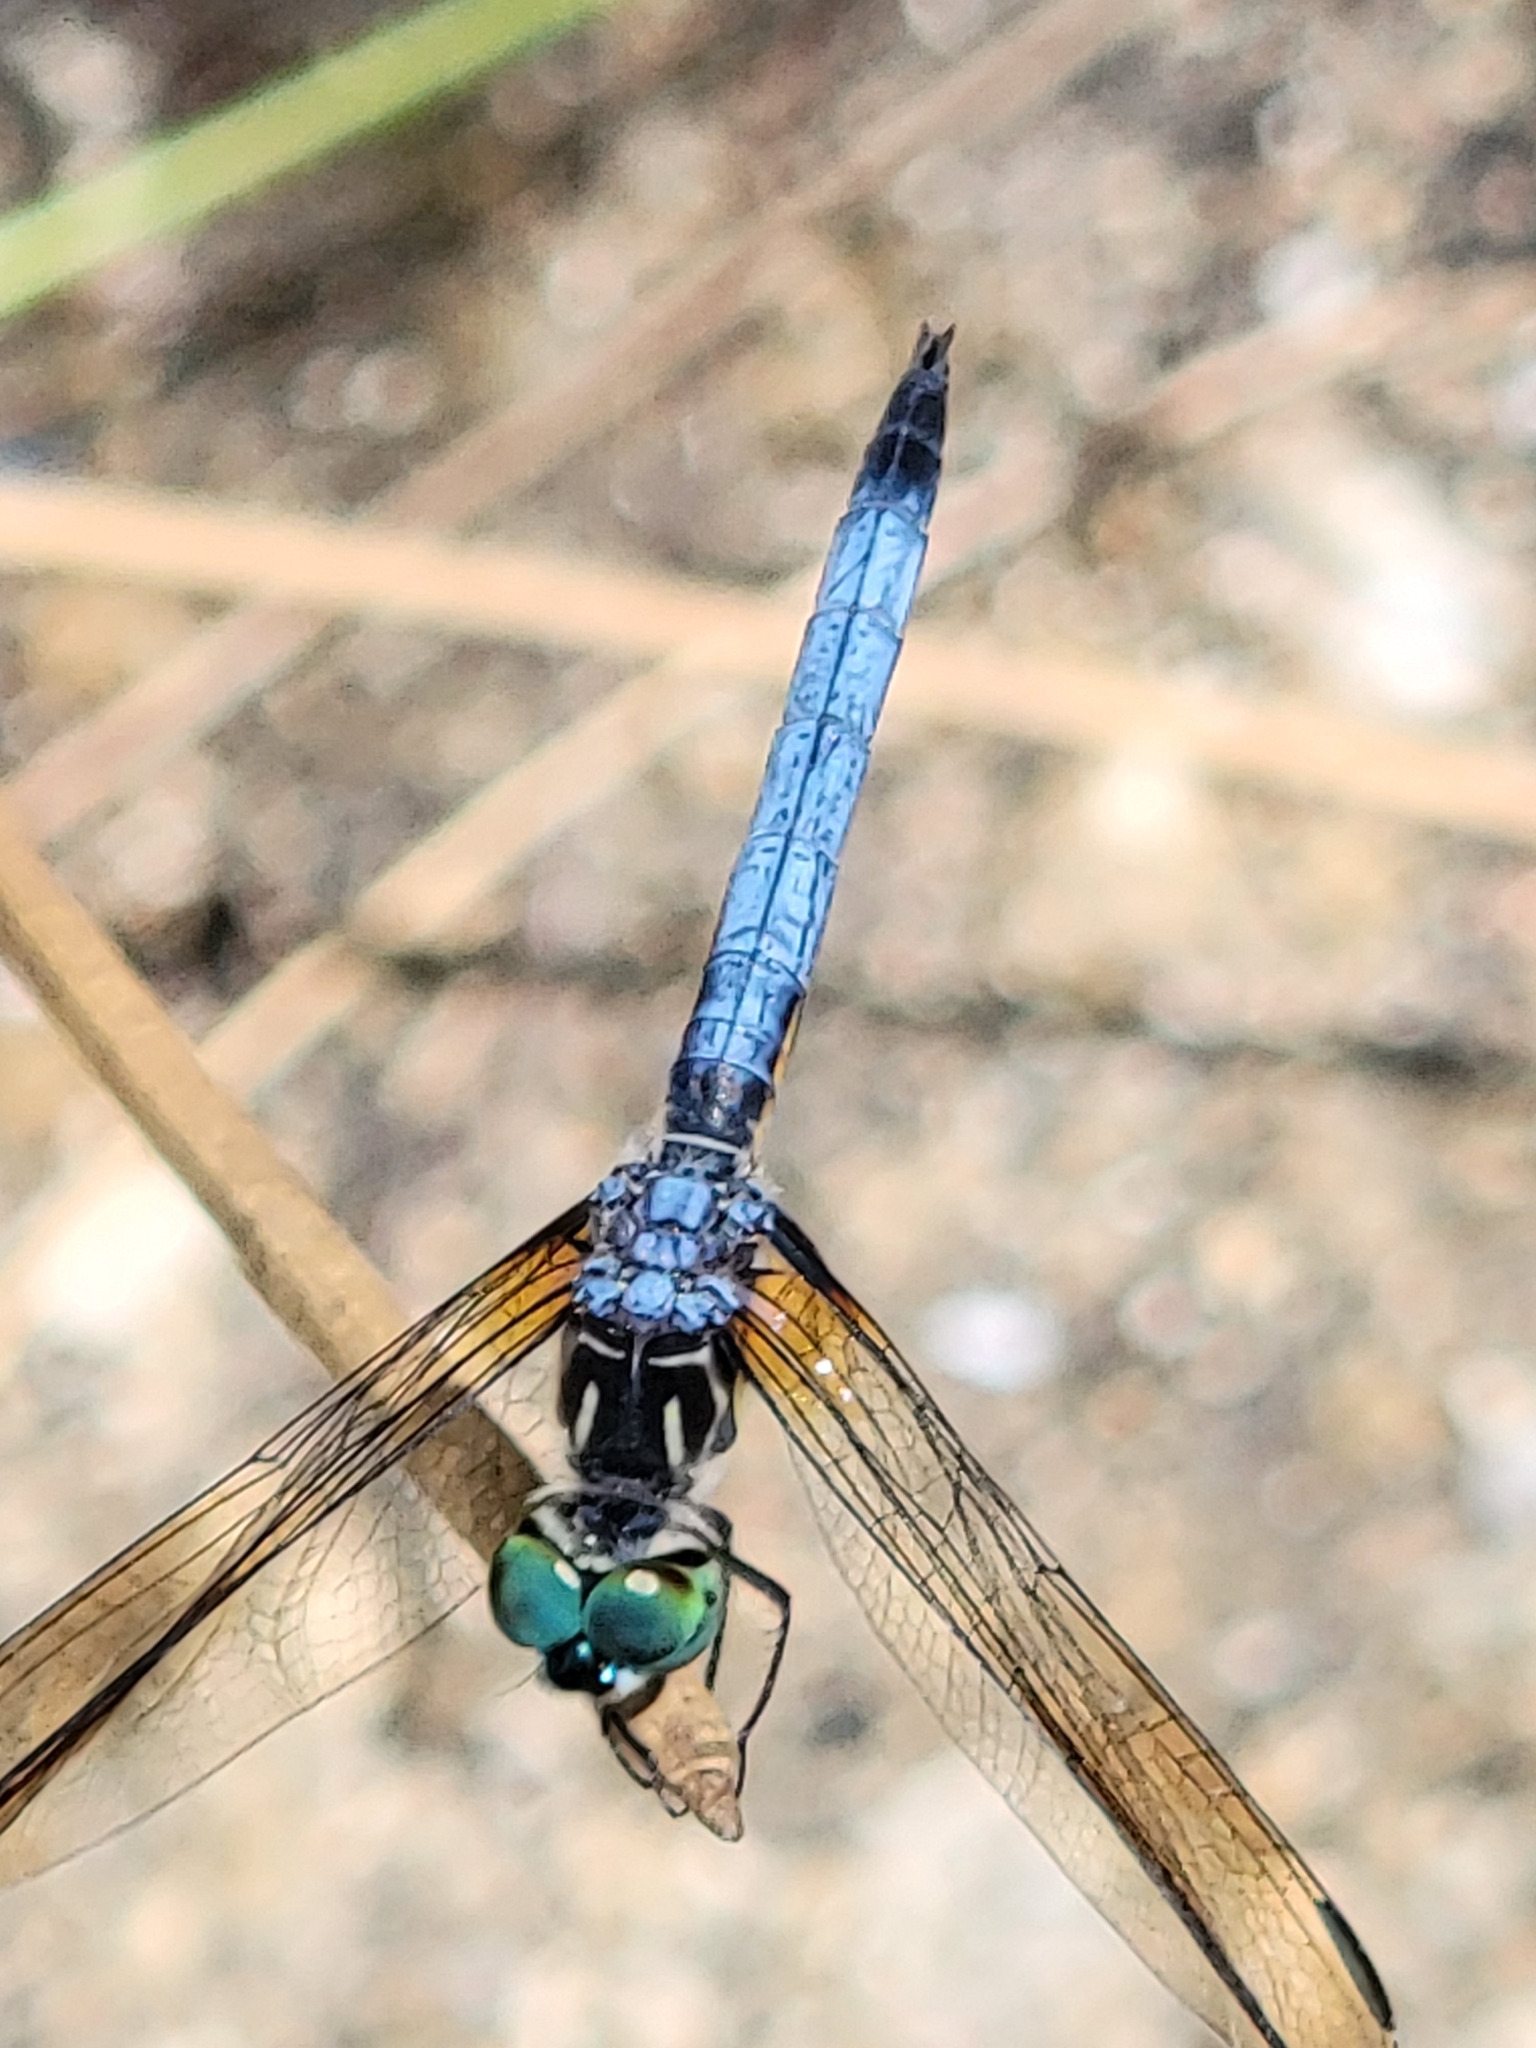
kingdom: Animalia
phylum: Arthropoda
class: Insecta
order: Odonata
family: Libellulidae
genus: Pachydiplax
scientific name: Pachydiplax longipennis
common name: Blue dasher
